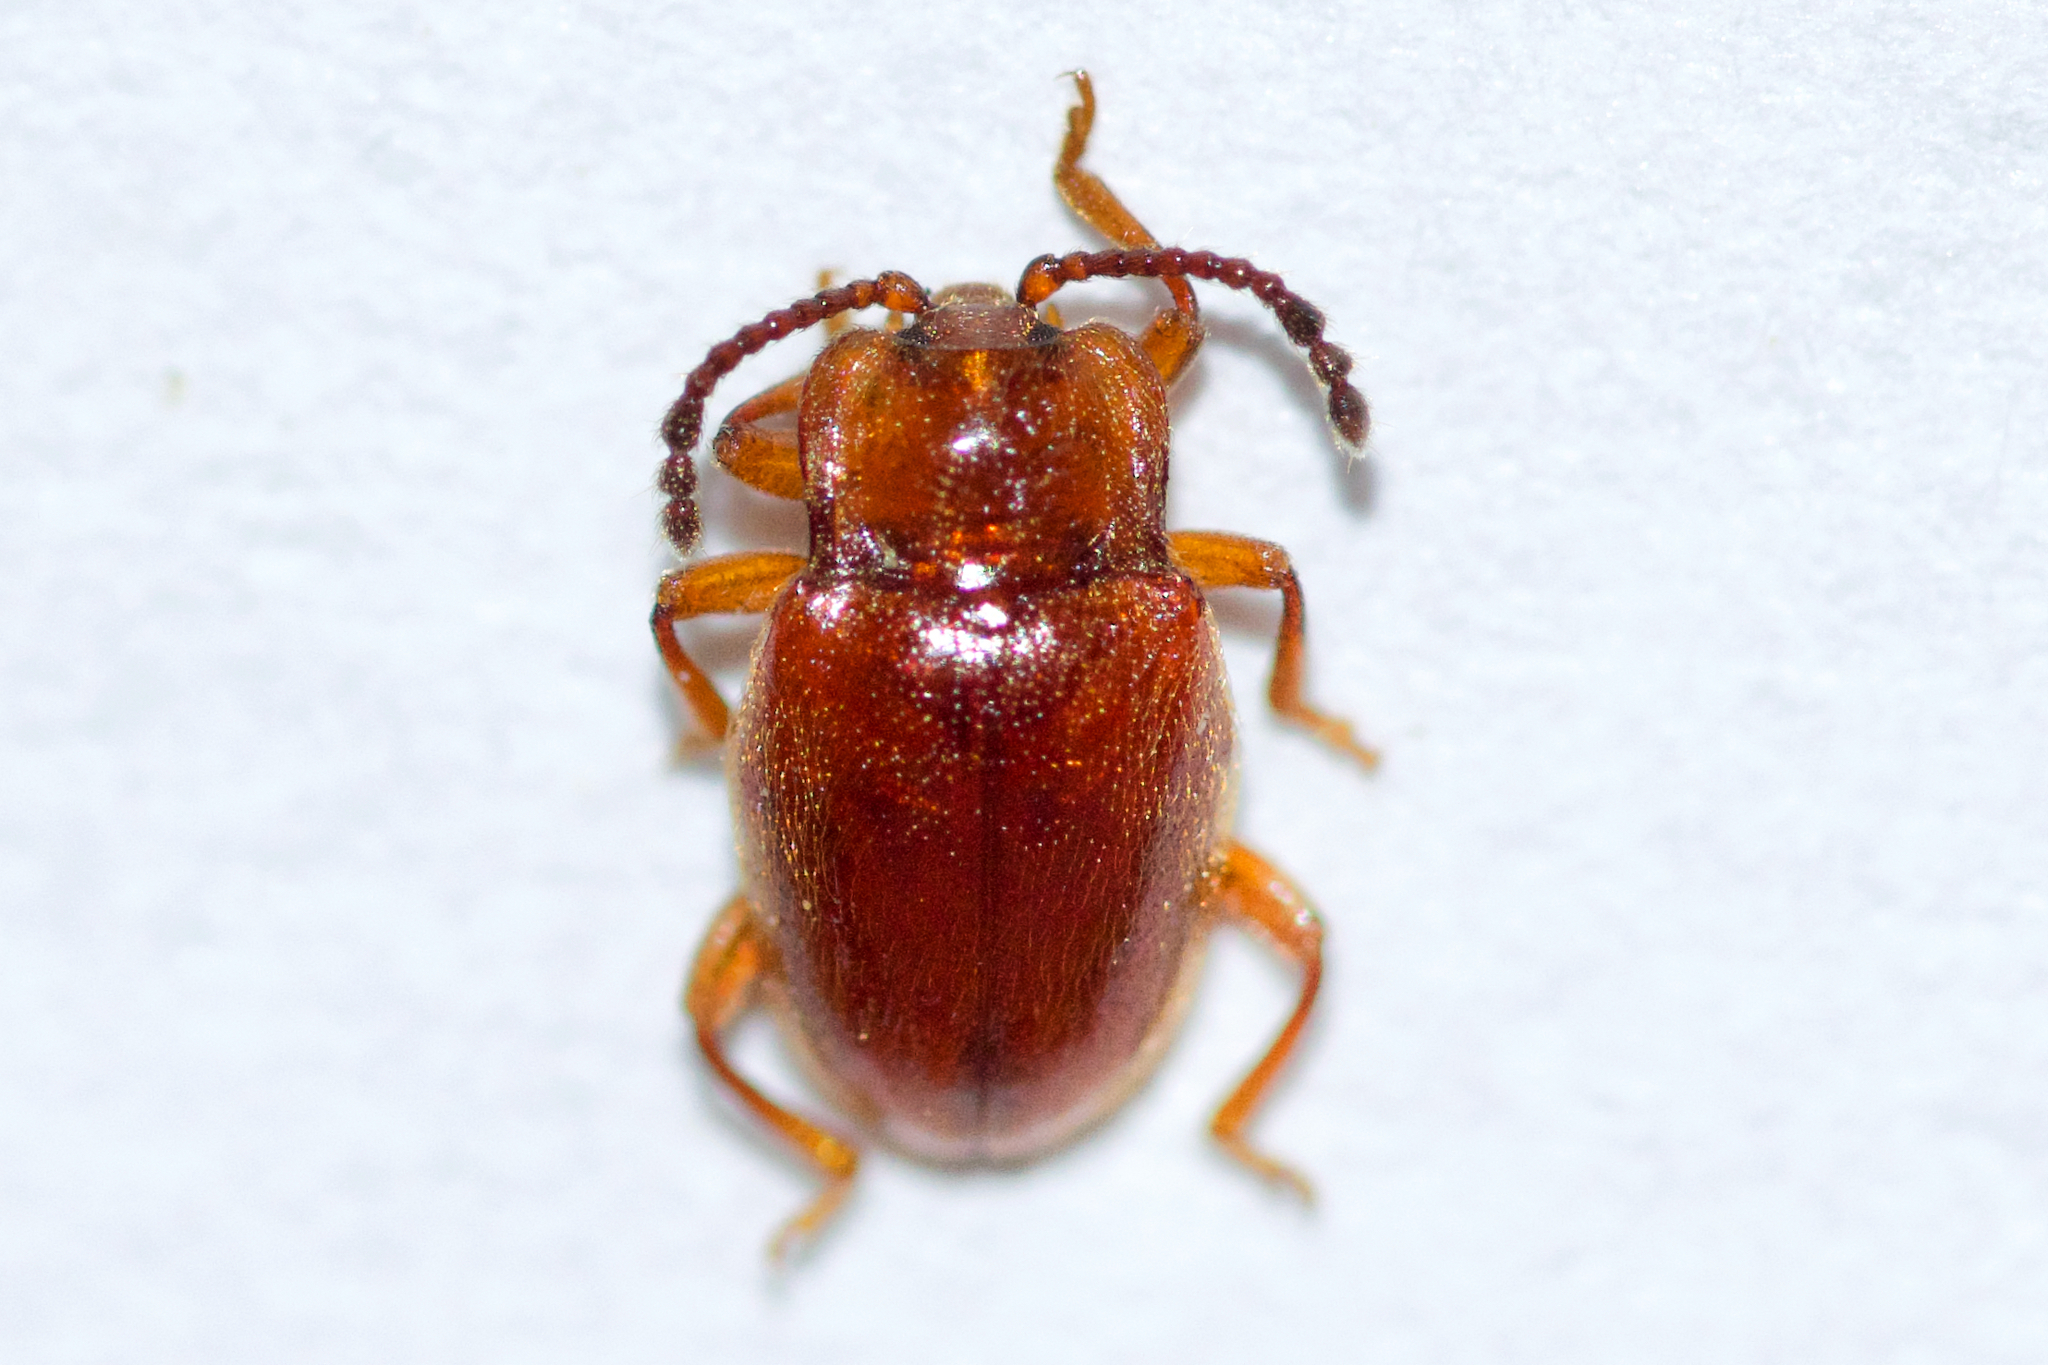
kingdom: Animalia
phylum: Arthropoda
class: Insecta
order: Coleoptera
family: Endomychidae
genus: Danae
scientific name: Danae testacea
